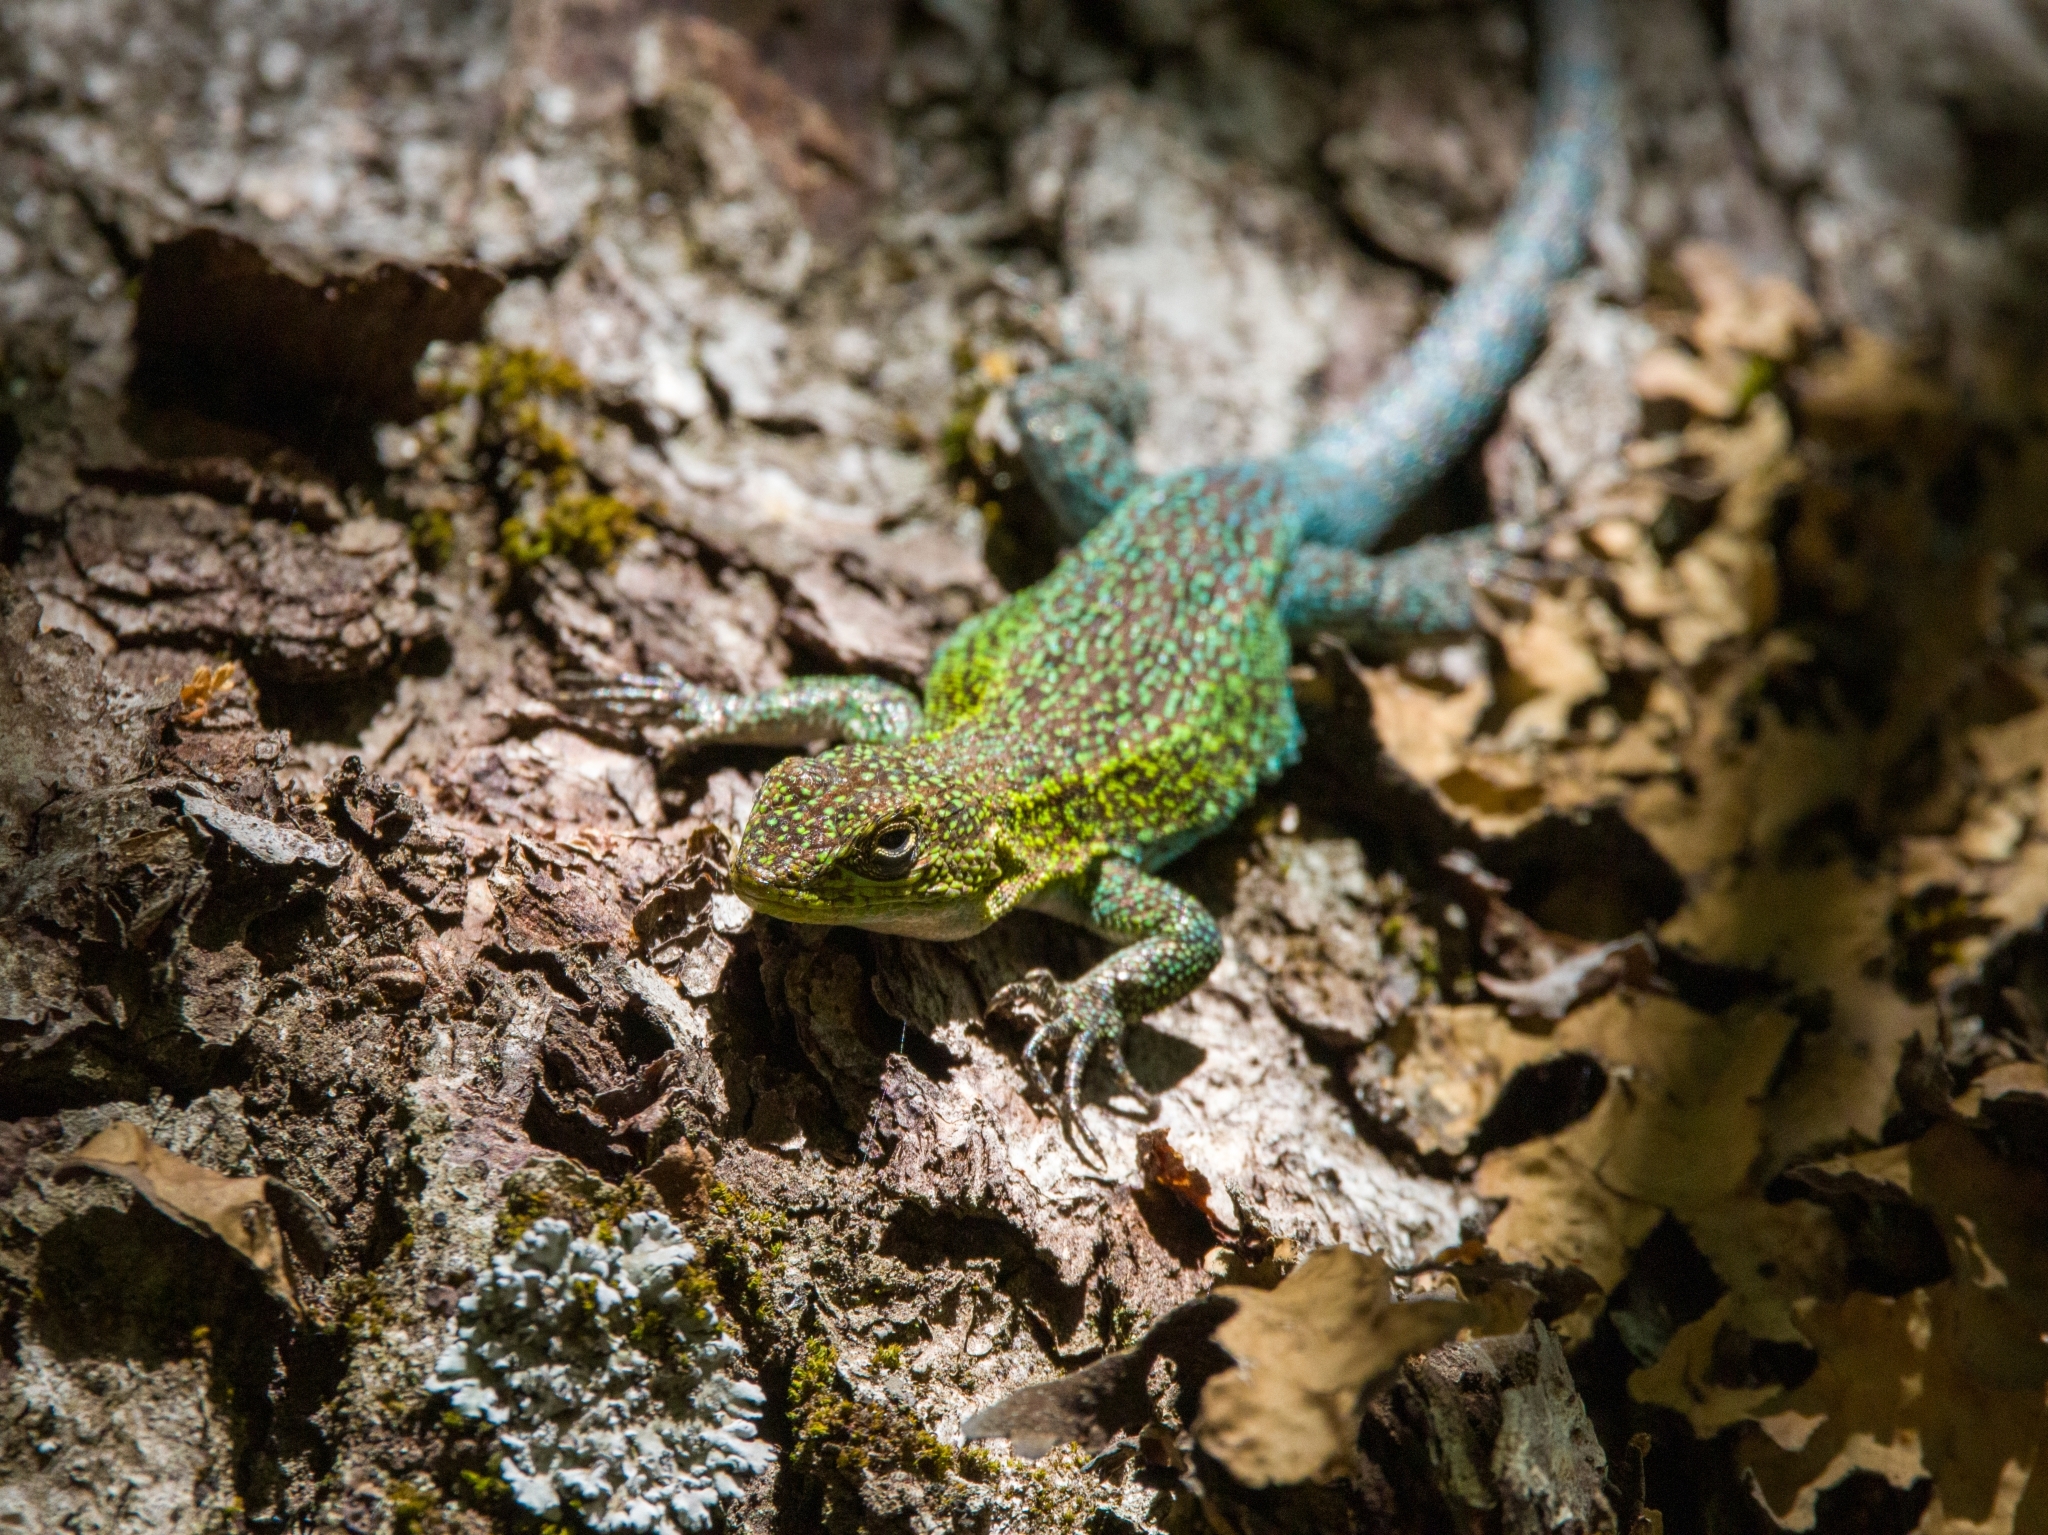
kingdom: Animalia
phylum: Chordata
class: Squamata
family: Liolaemidae
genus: Liolaemus
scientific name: Liolaemus tenuis
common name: Thin tree iguana
